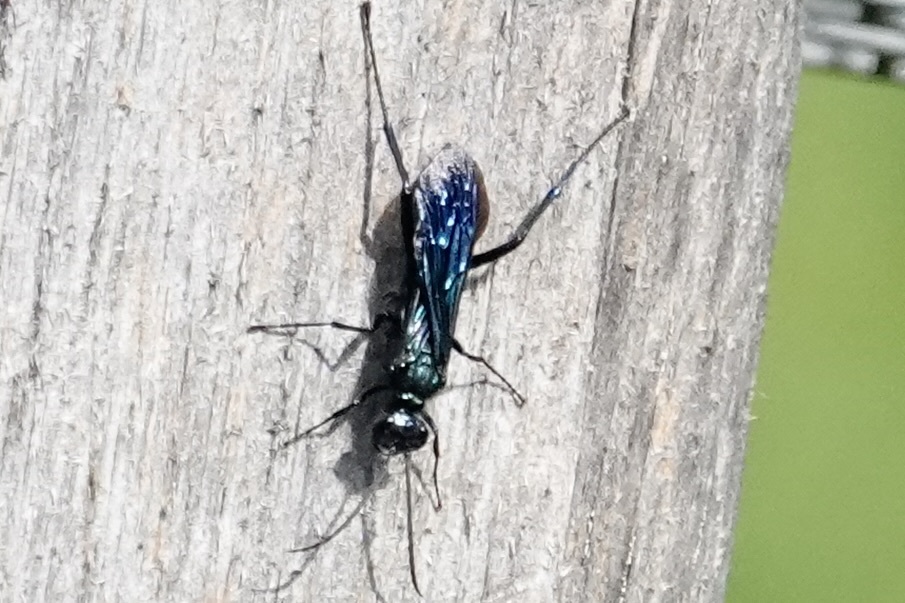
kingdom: Animalia
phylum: Arthropoda
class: Insecta
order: Hymenoptera
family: Sphecidae
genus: Chalybion
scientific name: Chalybion californicum
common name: Mud dauber
